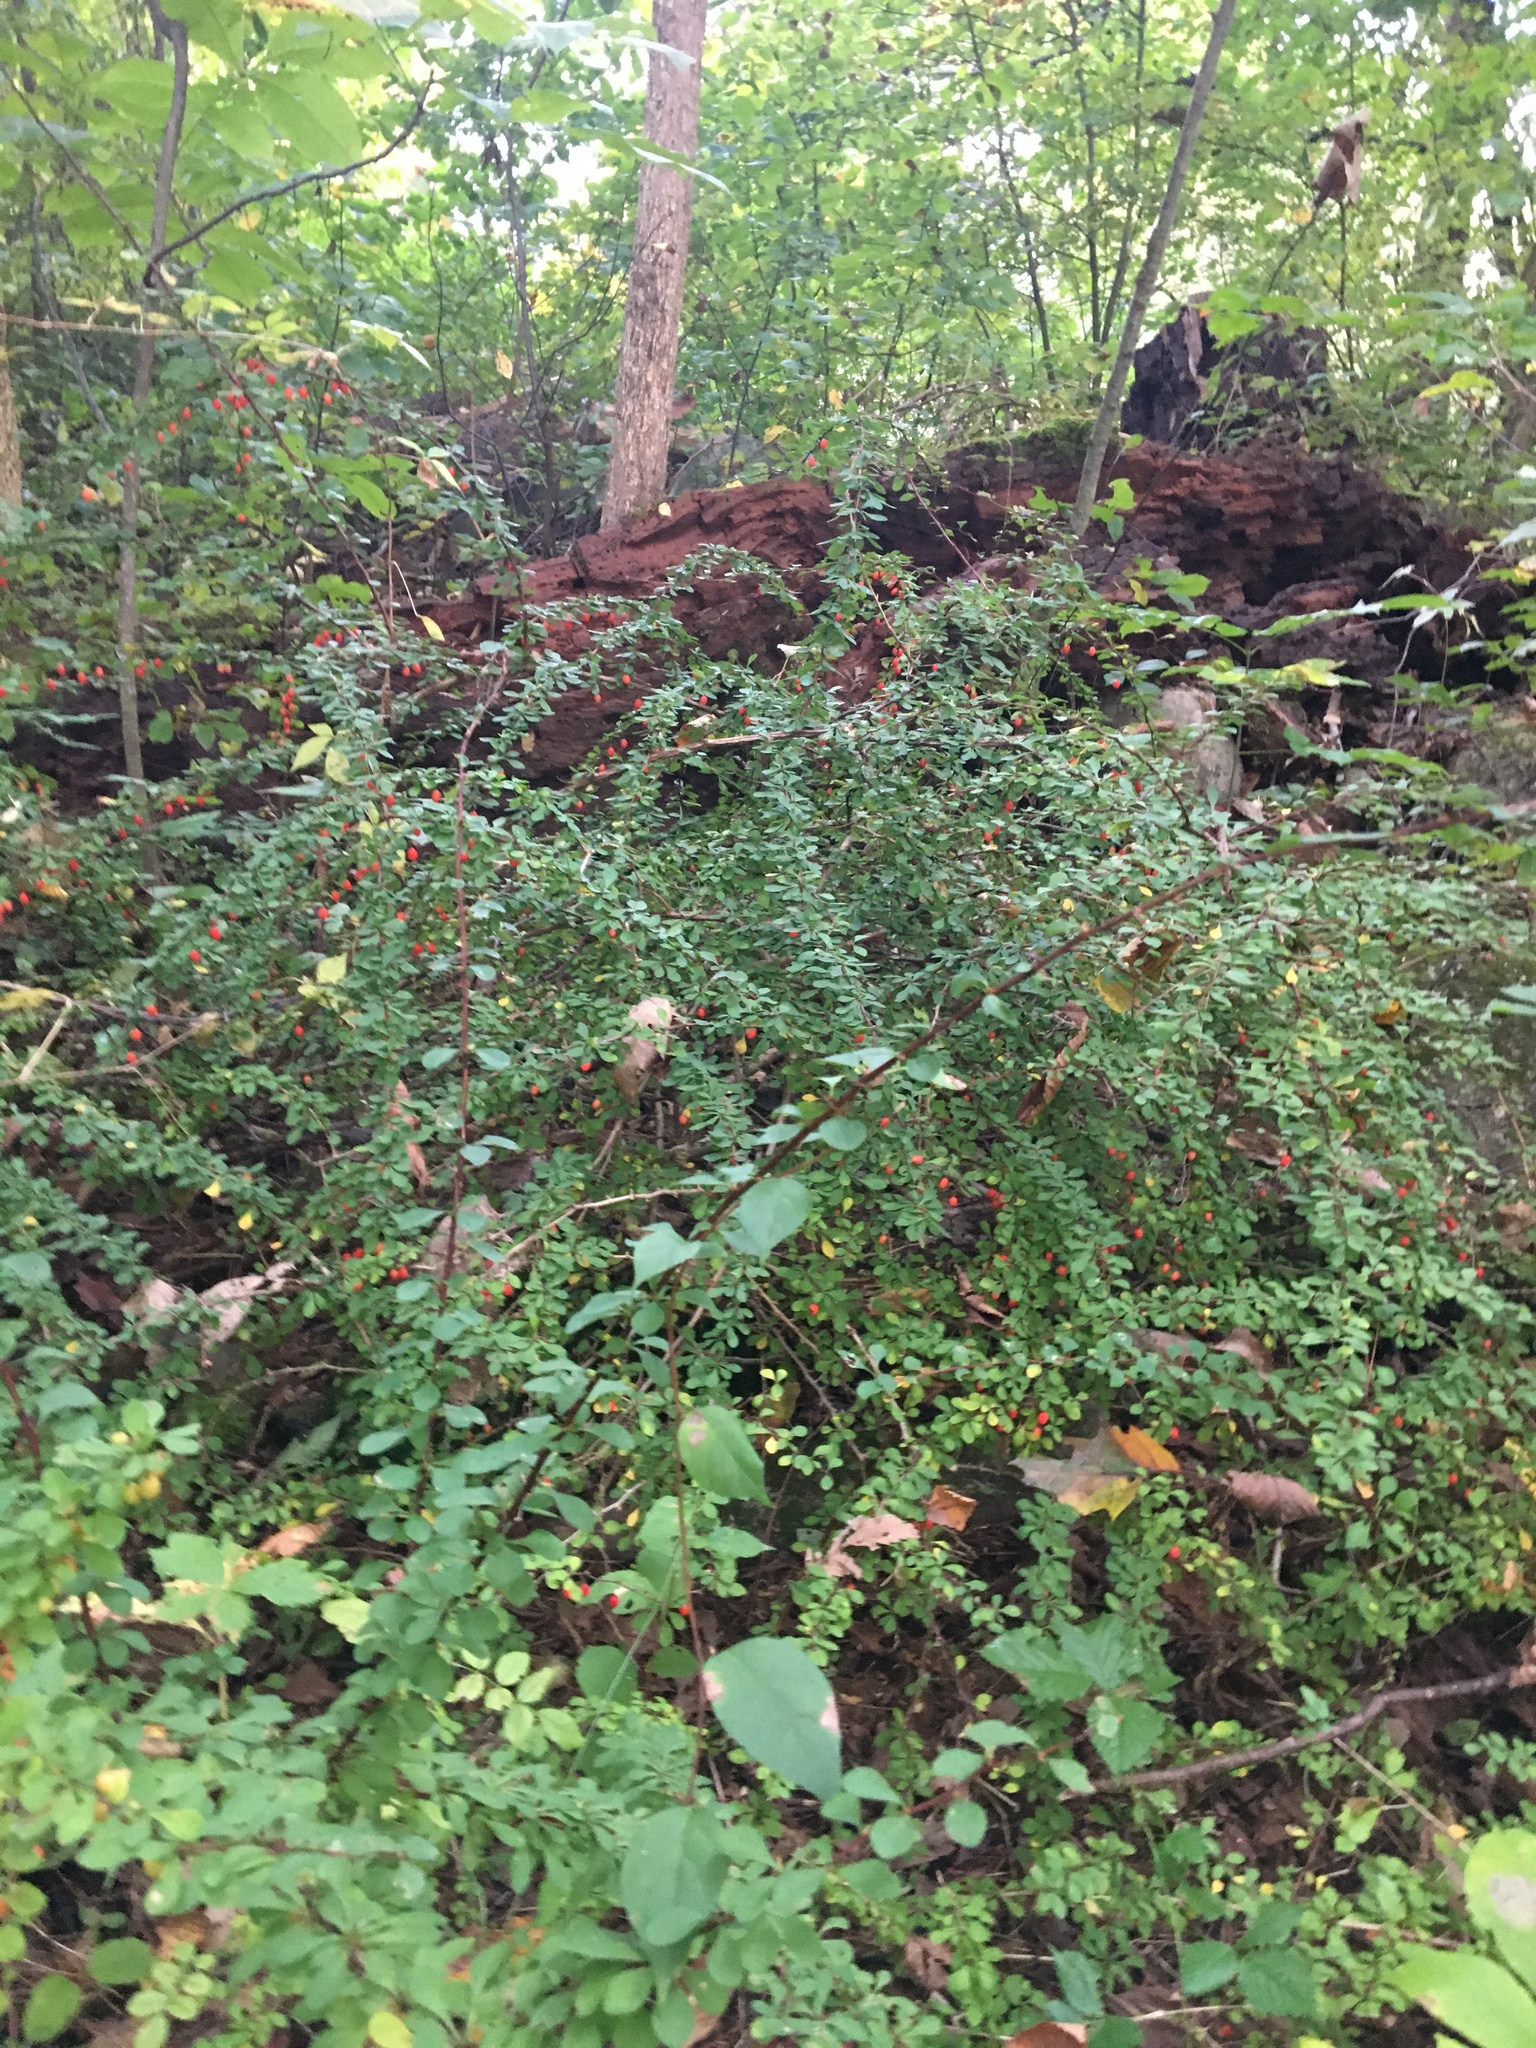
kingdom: Plantae
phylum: Tracheophyta
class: Magnoliopsida
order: Ranunculales
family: Berberidaceae
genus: Berberis
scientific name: Berberis thunbergii
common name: Japanese barberry
